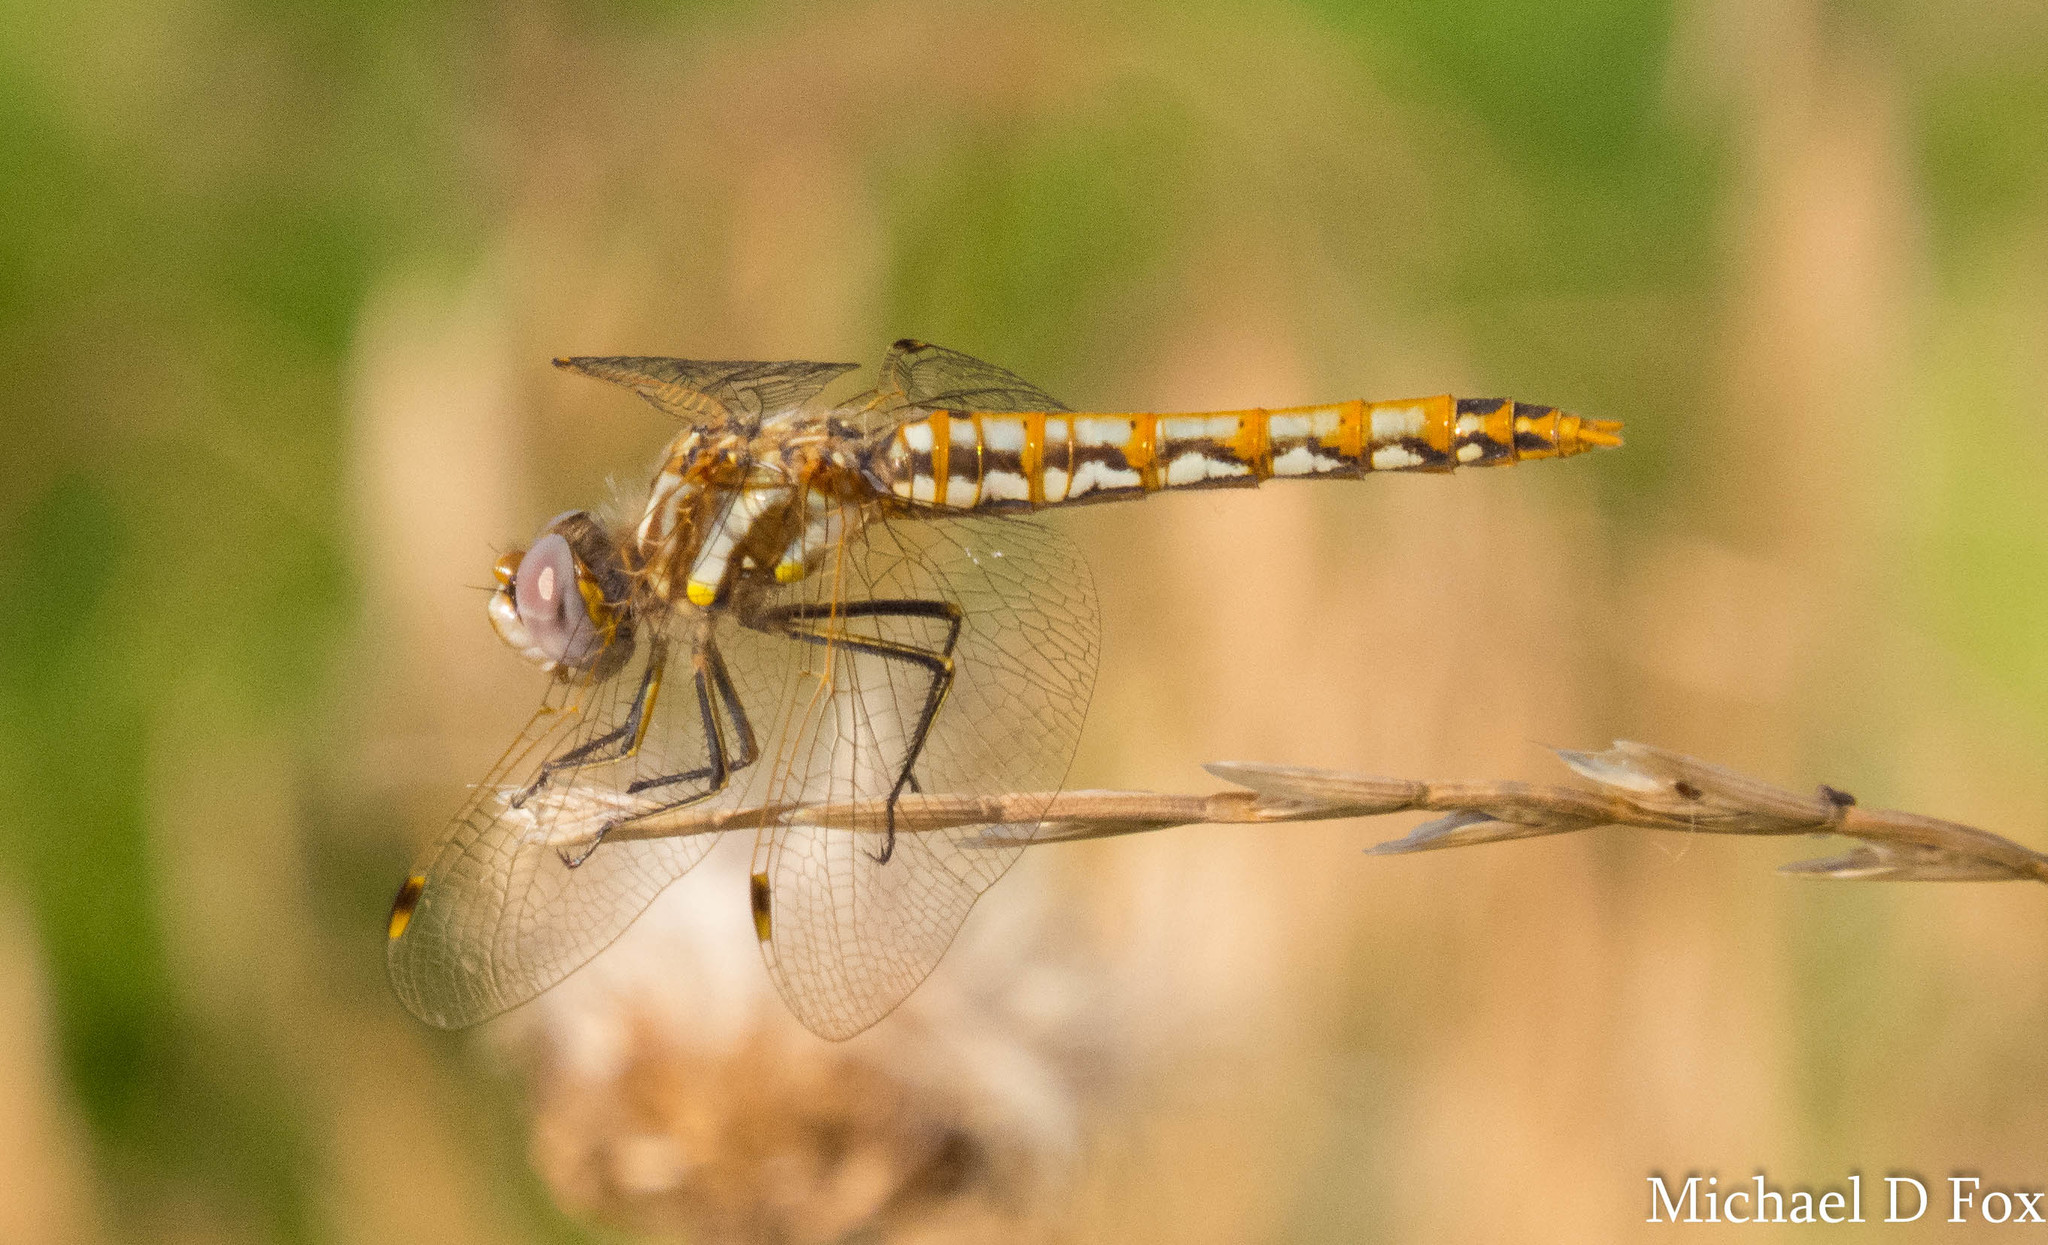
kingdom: Animalia
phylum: Arthropoda
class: Insecta
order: Odonata
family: Libellulidae
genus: Sympetrum
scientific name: Sympetrum corruptum
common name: Variegated meadowhawk
